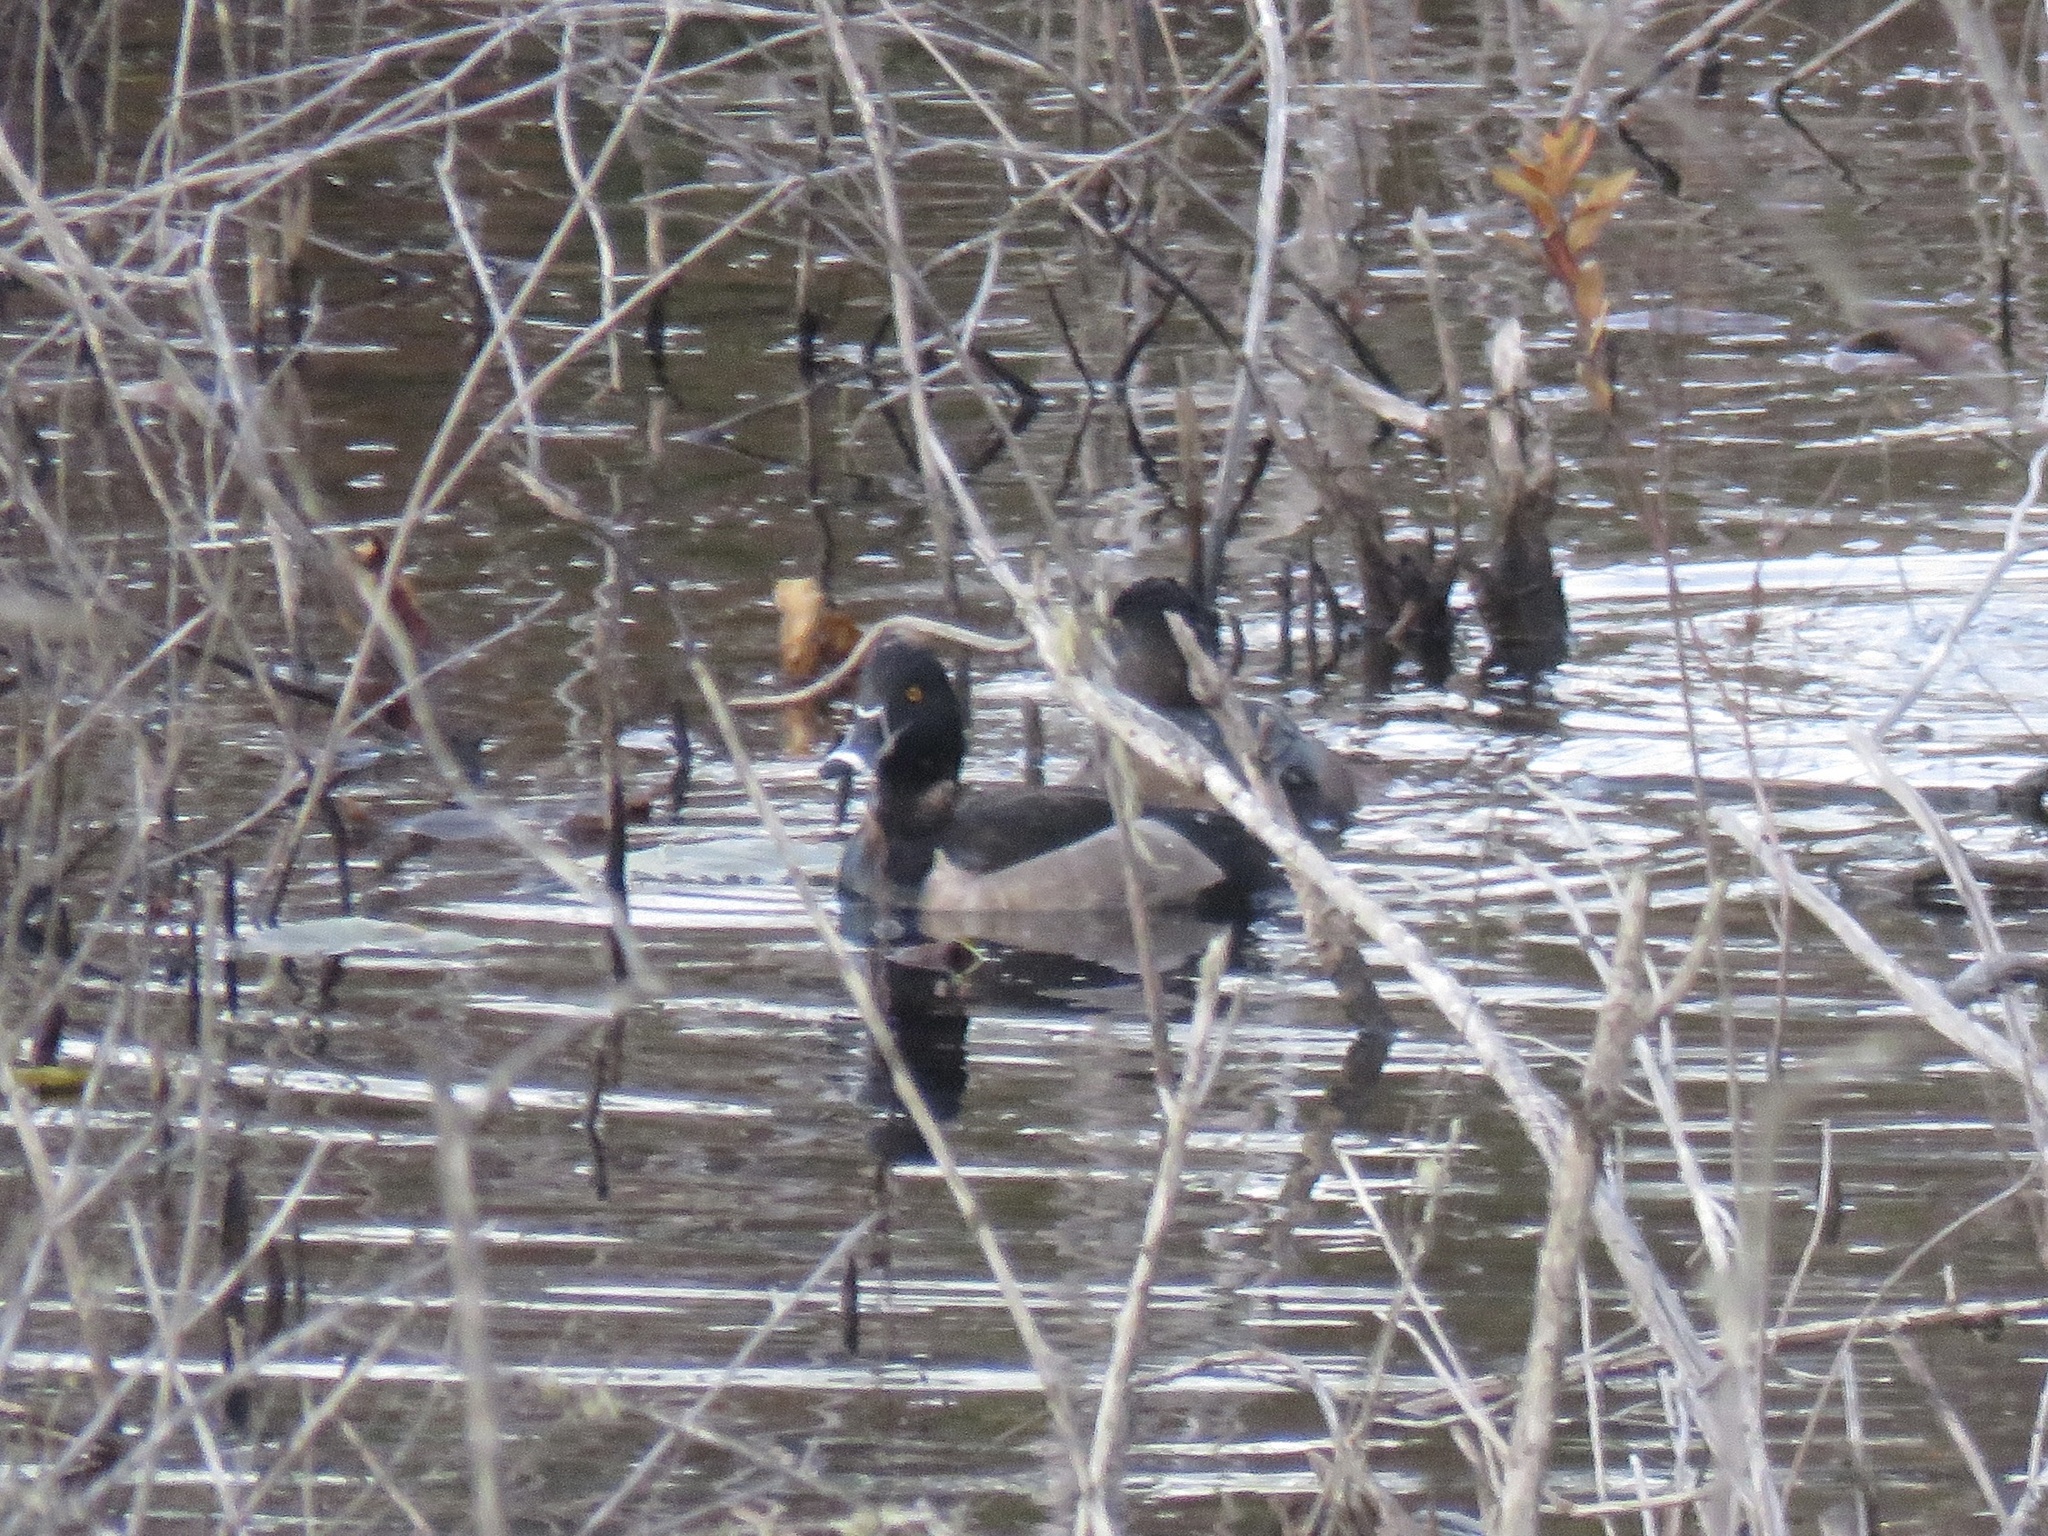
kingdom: Animalia
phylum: Chordata
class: Aves
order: Anseriformes
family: Anatidae
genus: Aythya
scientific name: Aythya collaris
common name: Ring-necked duck
